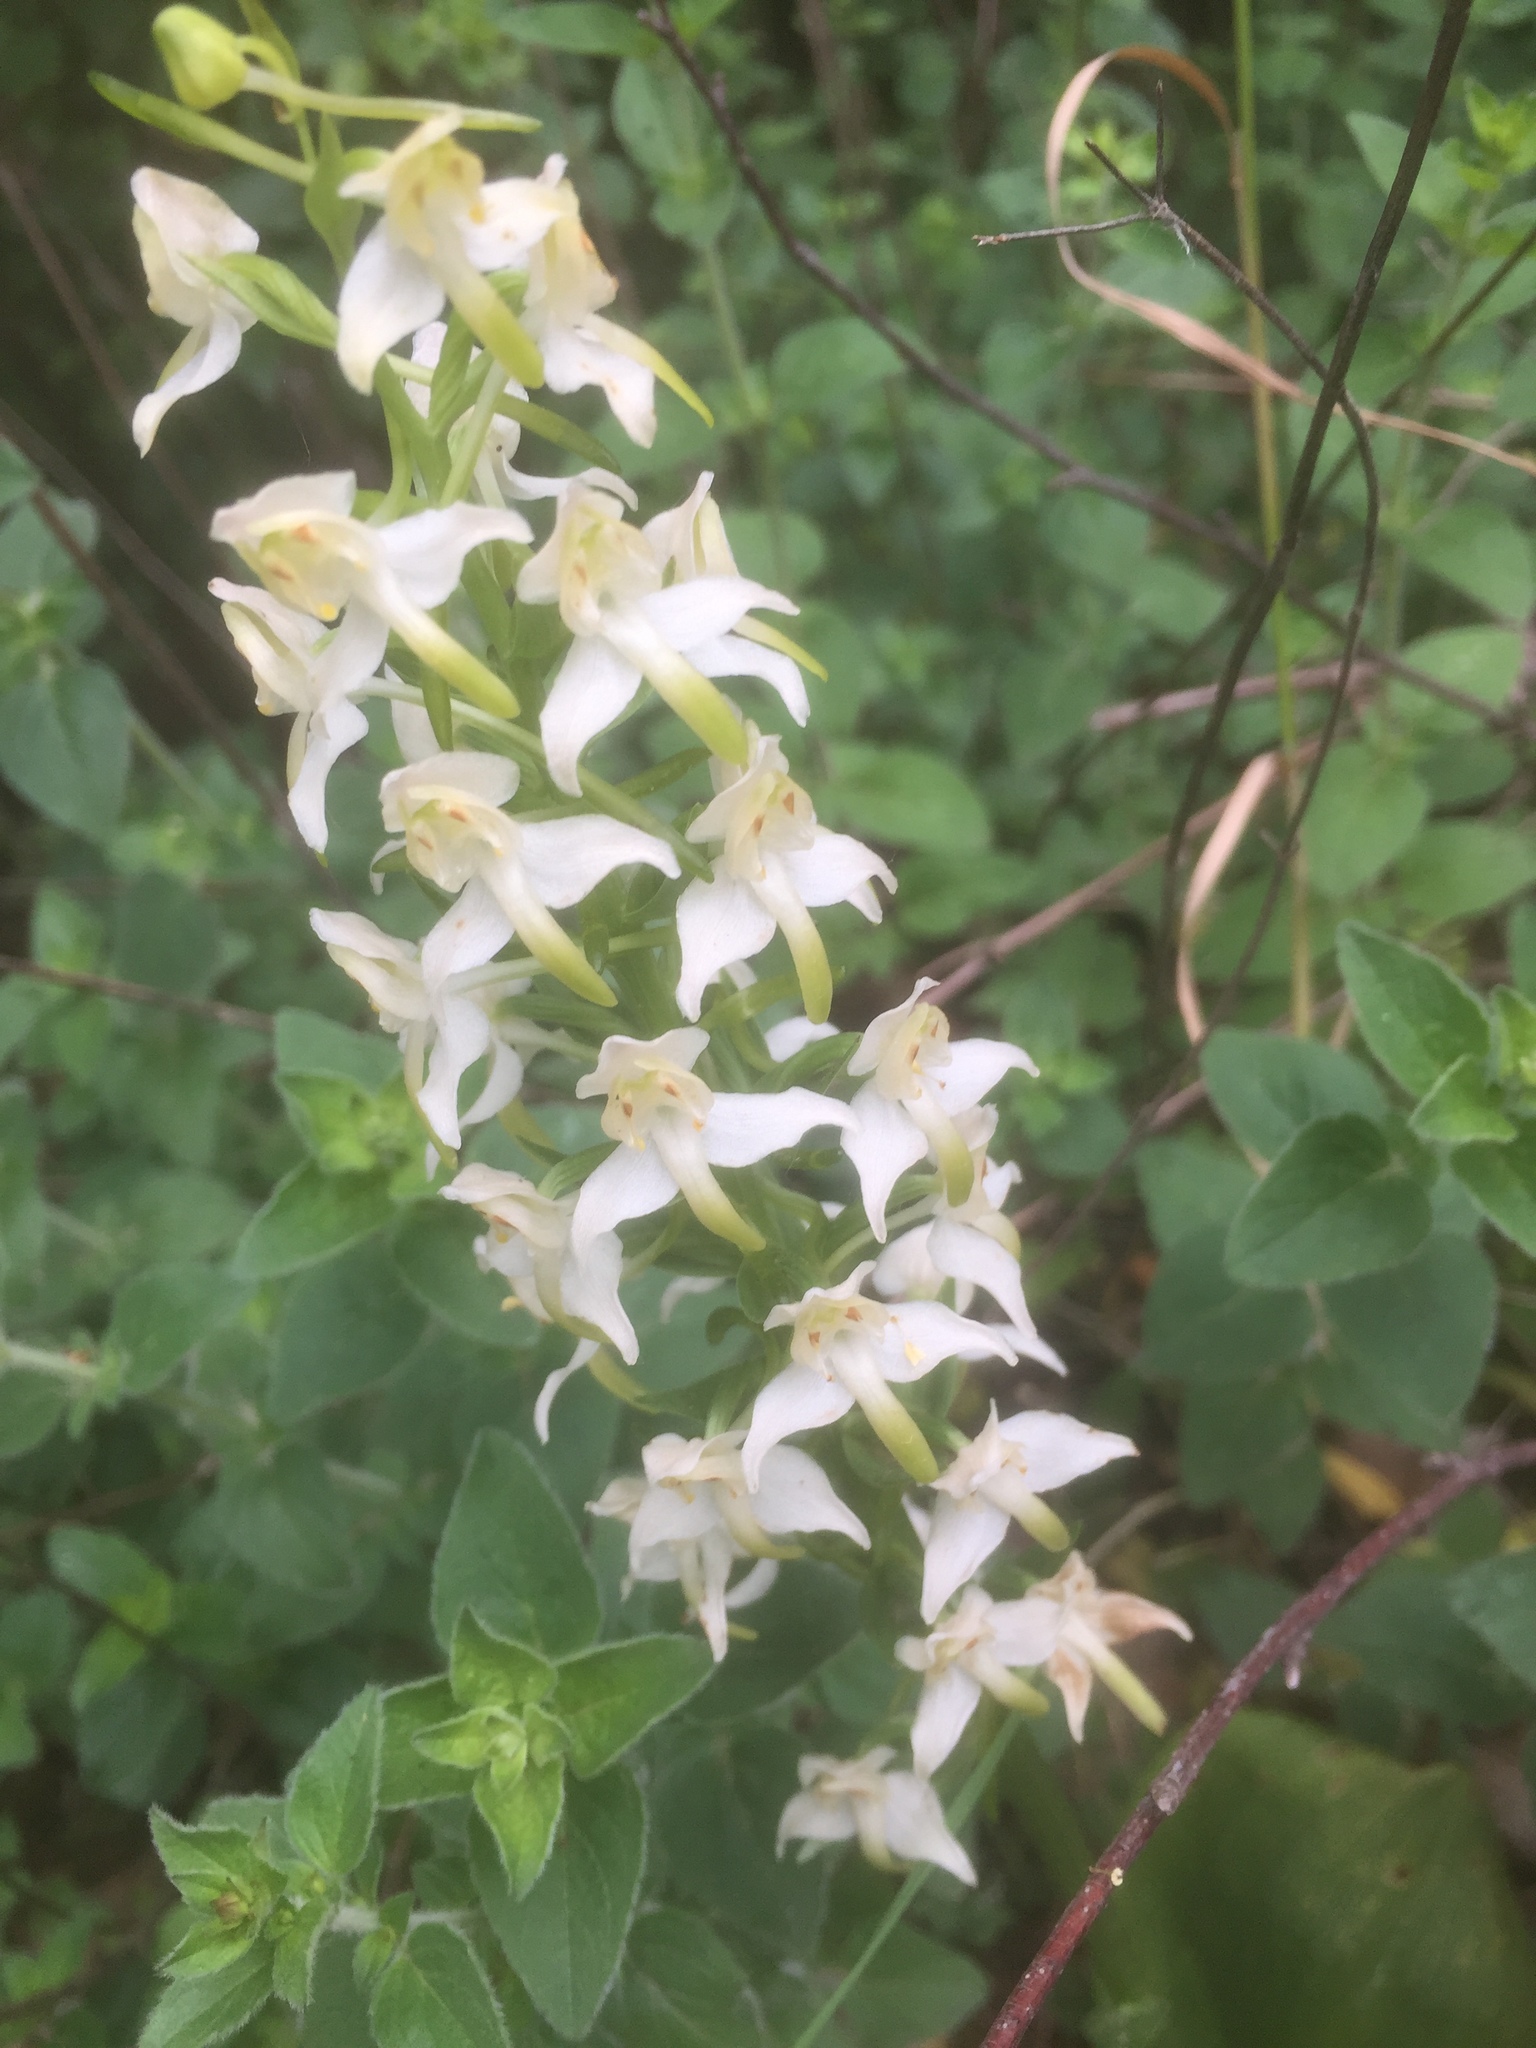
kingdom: Plantae
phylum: Tracheophyta
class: Liliopsida
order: Asparagales
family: Orchidaceae
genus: Platanthera
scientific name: Platanthera chlorantha
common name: Greater butterfly-orchid
